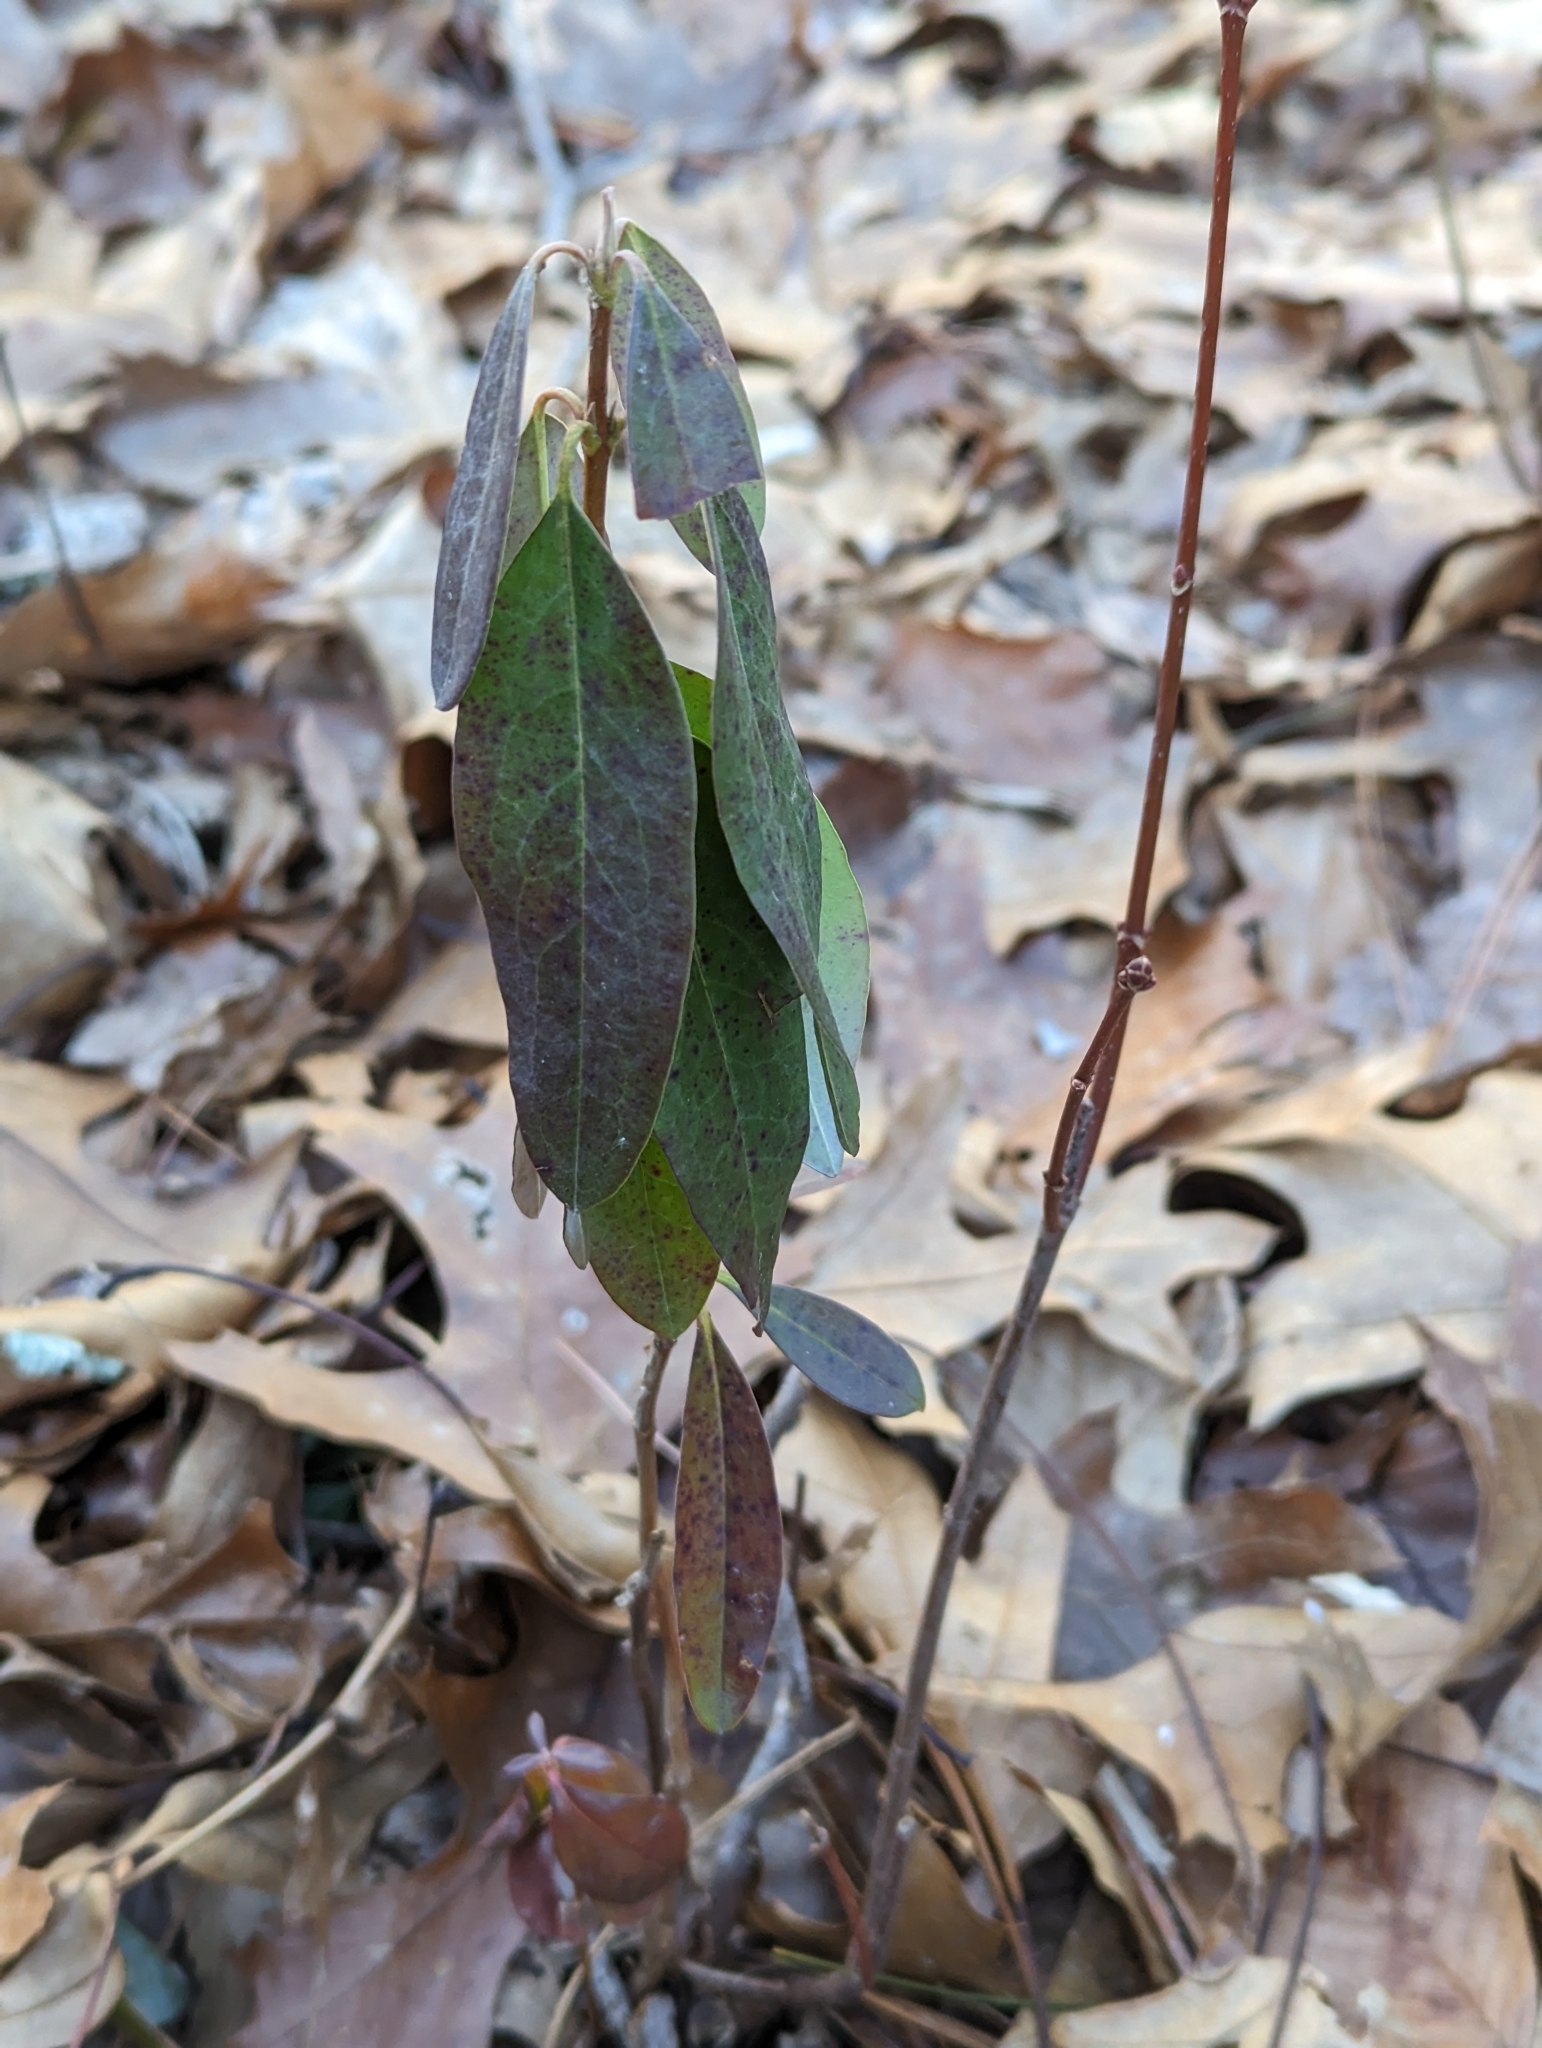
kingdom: Plantae
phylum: Tracheophyta
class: Magnoliopsida
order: Ericales
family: Ericaceae
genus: Kalmia
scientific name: Kalmia angustifolia
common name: Sheep-laurel
